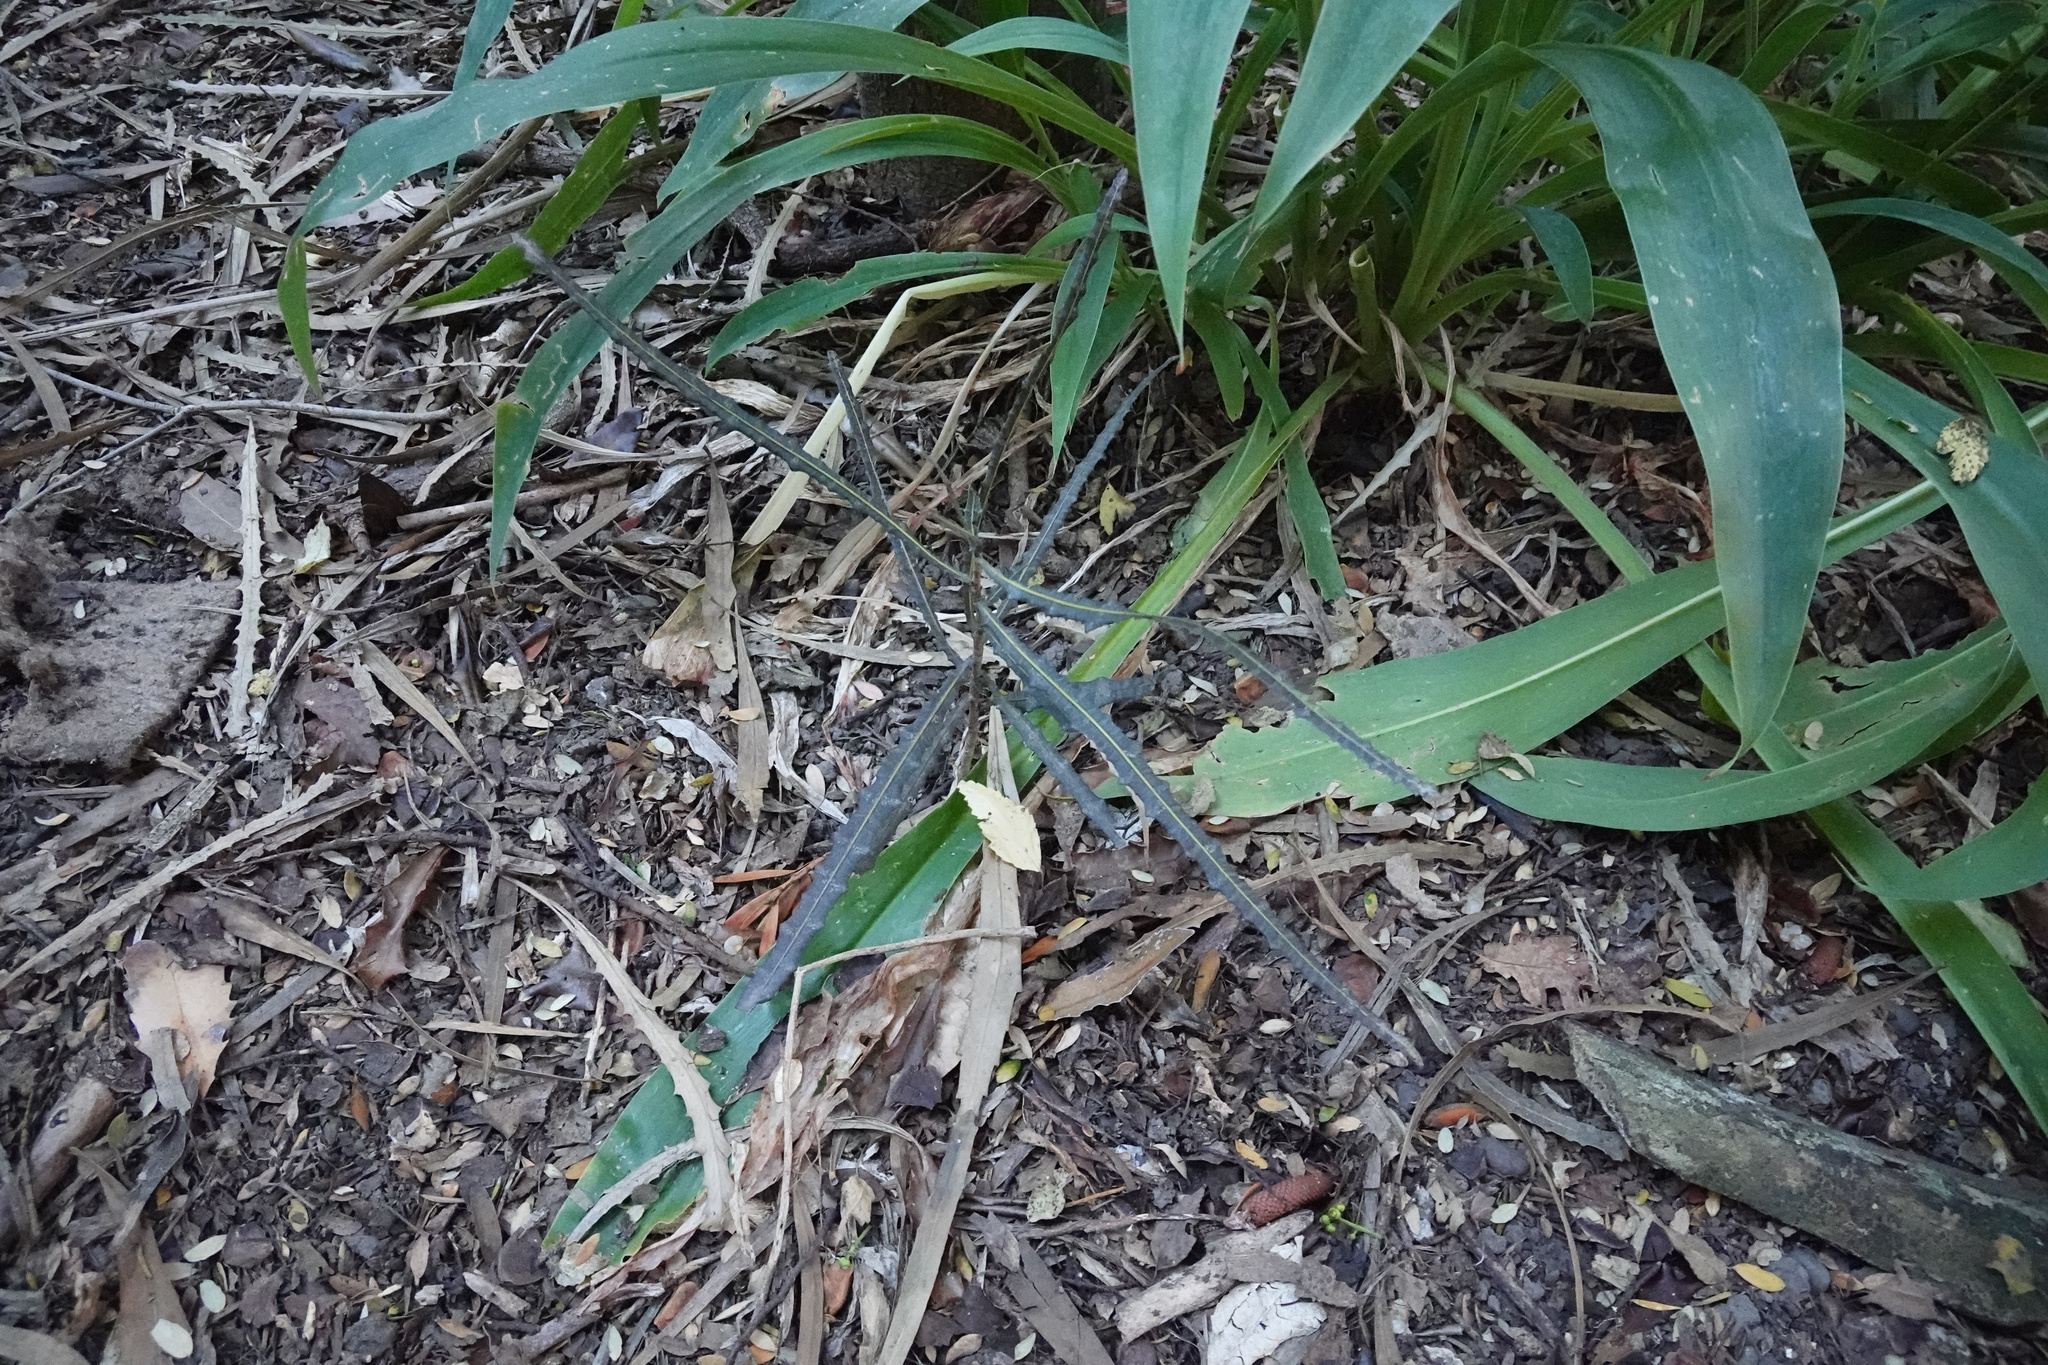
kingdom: Plantae
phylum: Tracheophyta
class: Magnoliopsida
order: Apiales
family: Araliaceae
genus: Pseudopanax
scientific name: Pseudopanax ferox
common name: Fierce lancewood
